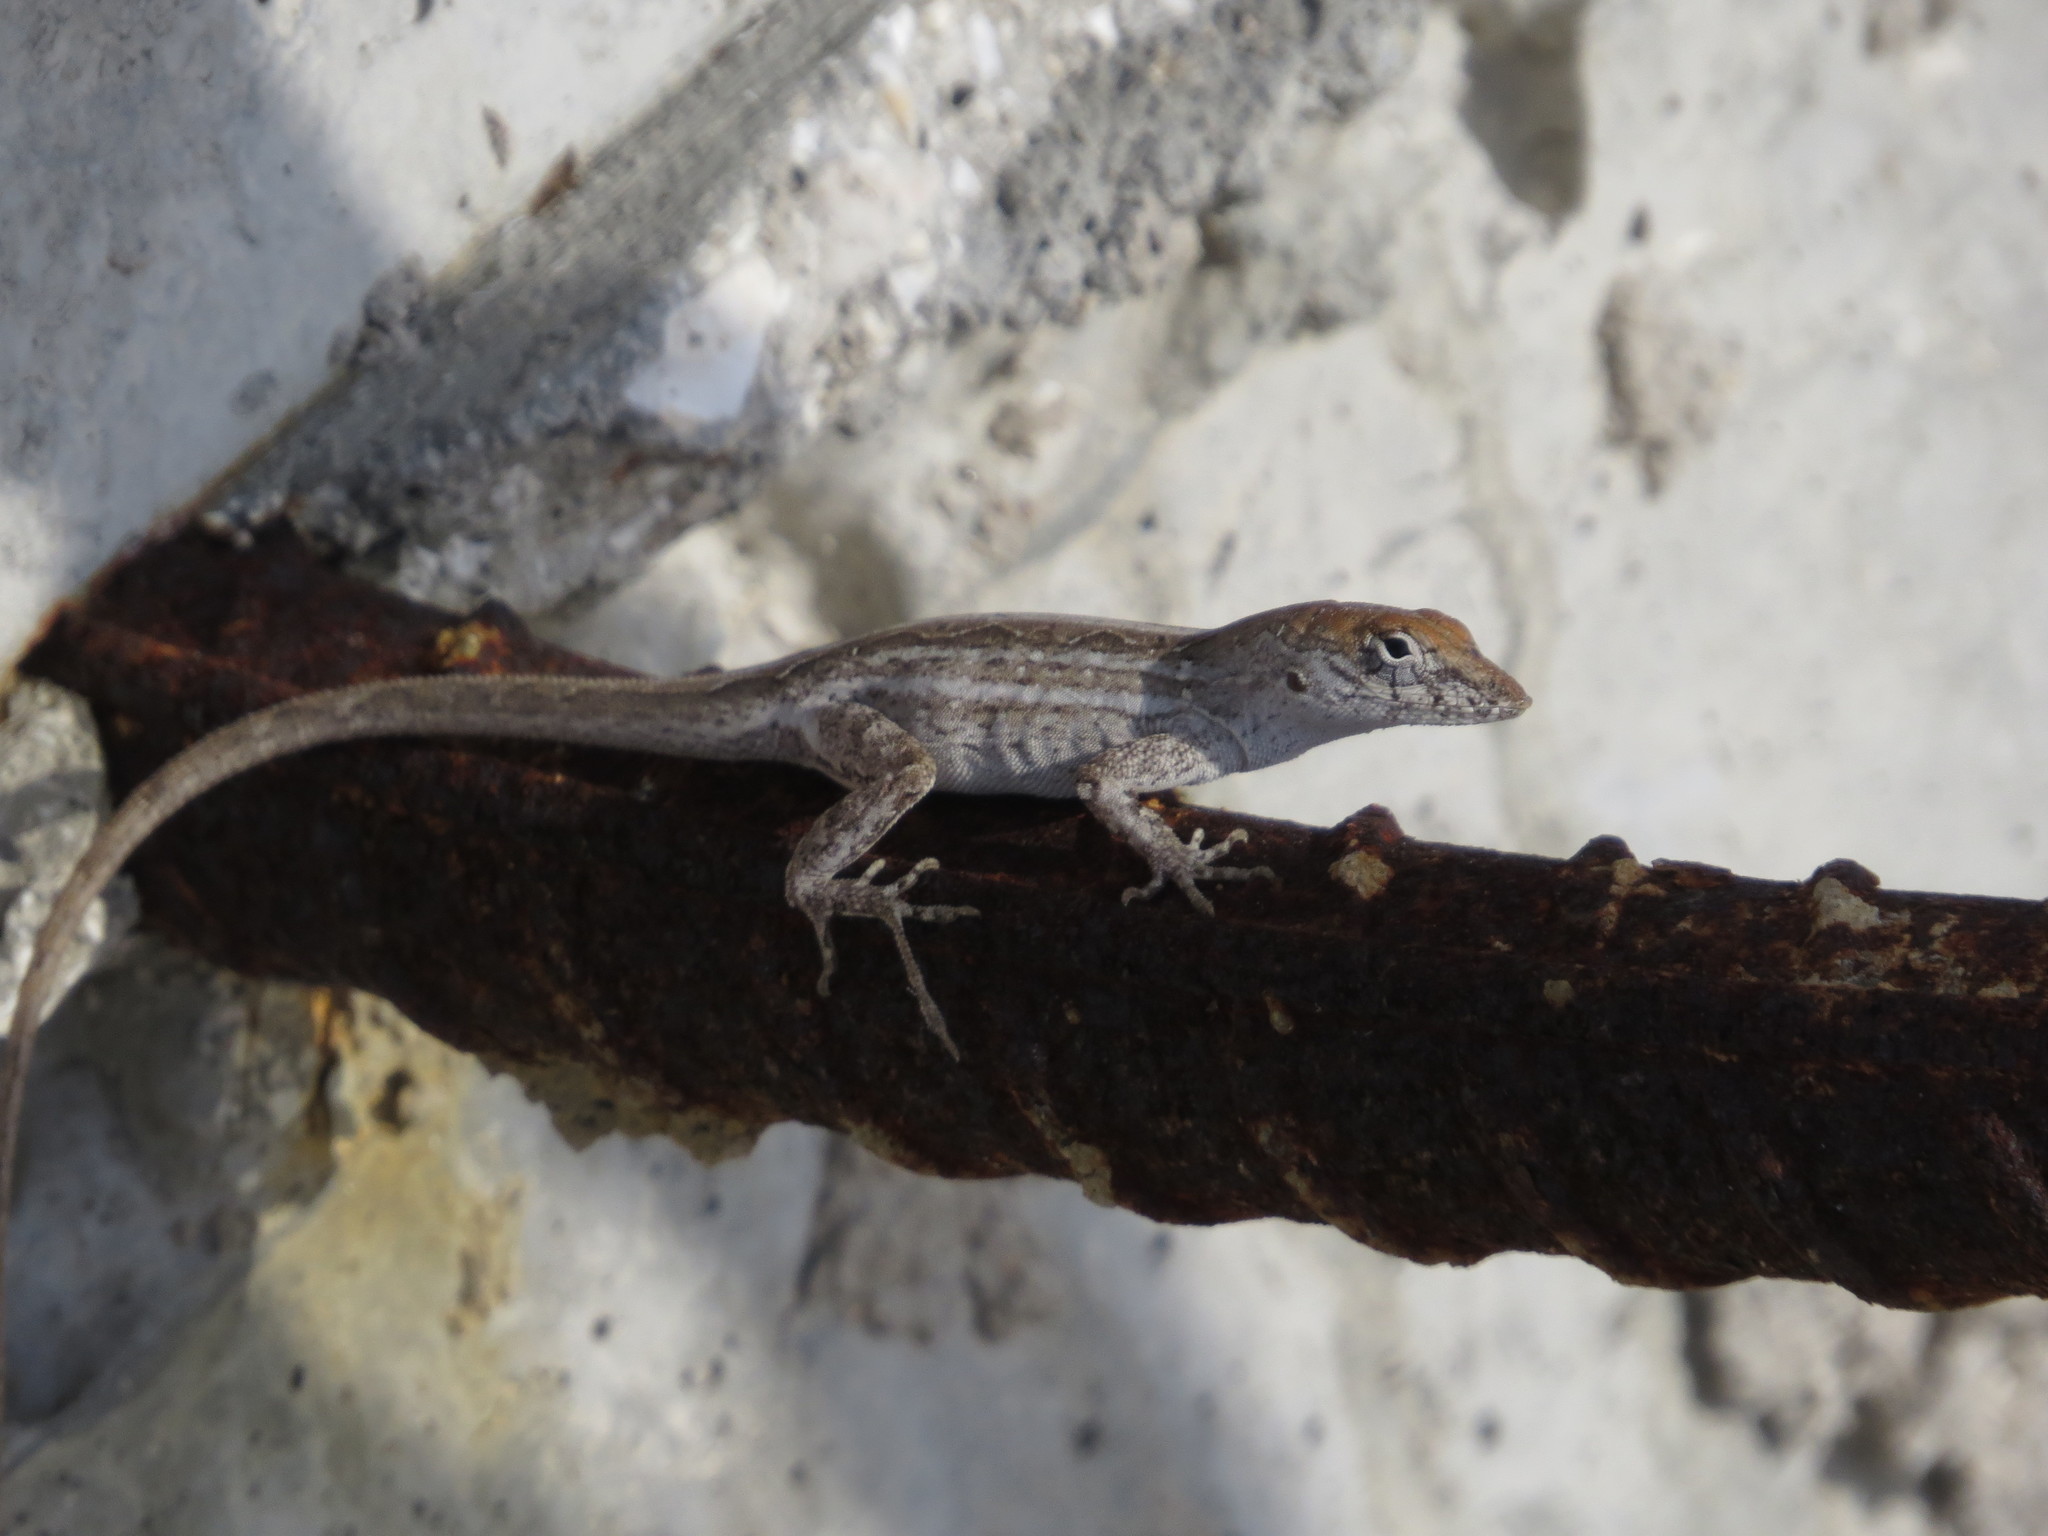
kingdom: Animalia
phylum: Chordata
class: Squamata
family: Dactyloidae
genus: Anolis
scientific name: Anolis sagrei
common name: Brown anole
